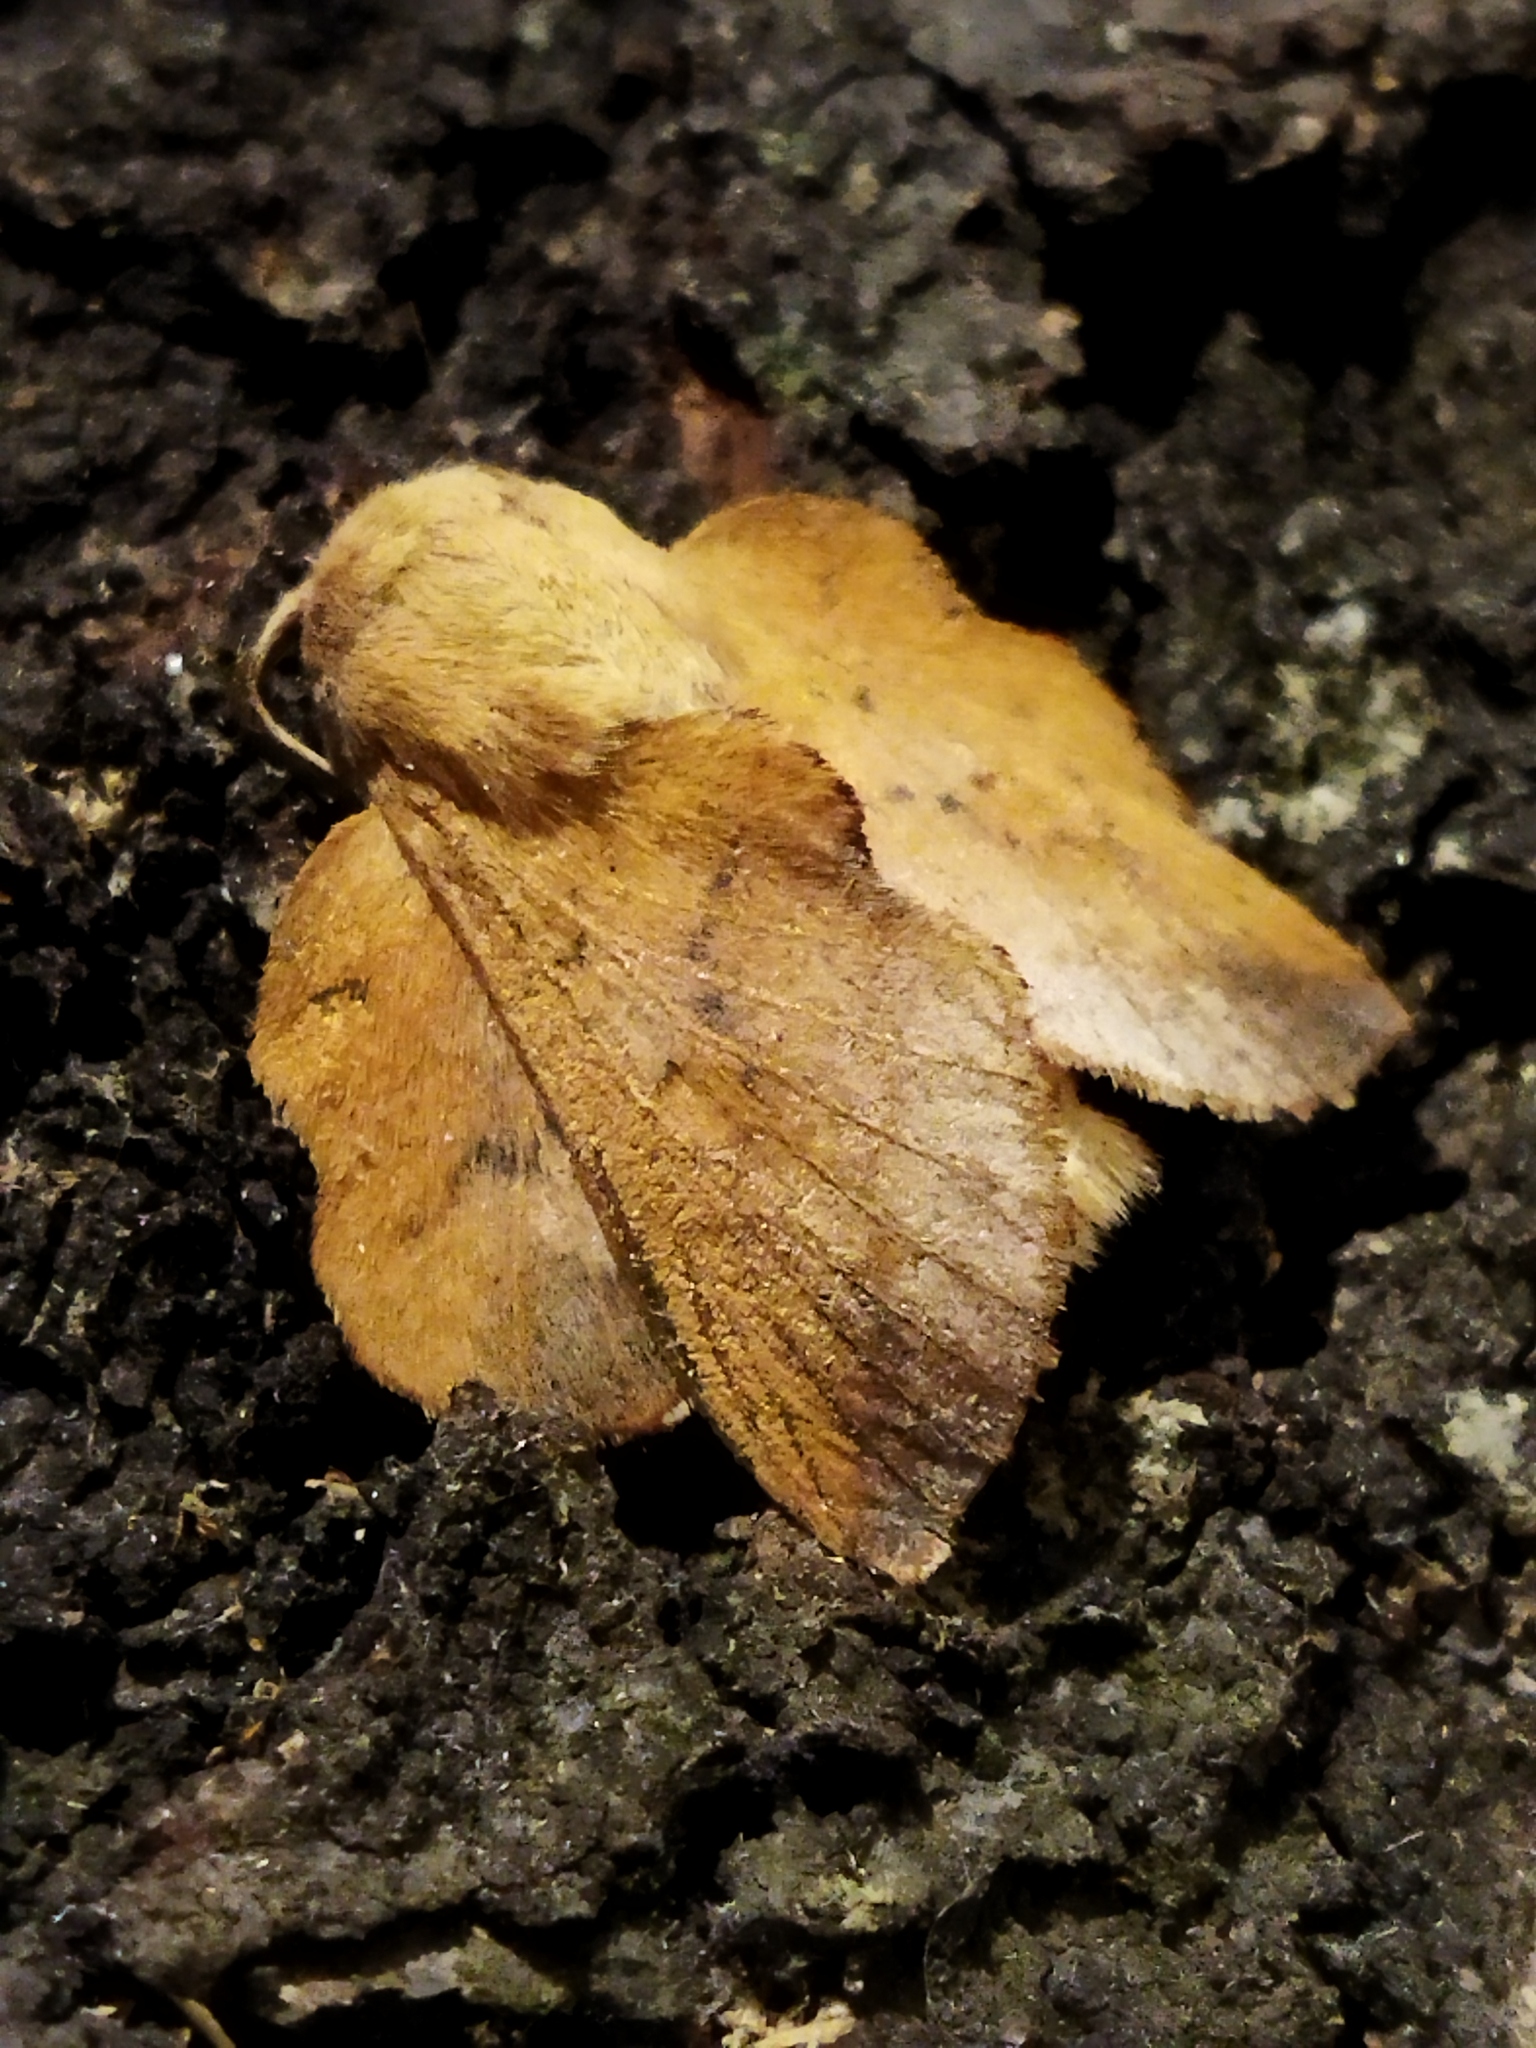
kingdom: Animalia
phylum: Arthropoda
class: Insecta
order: Lepidoptera
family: Lasiocampidae
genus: Phyllodesma
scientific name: Phyllodesma tremulifolia
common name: Aspen lappet
